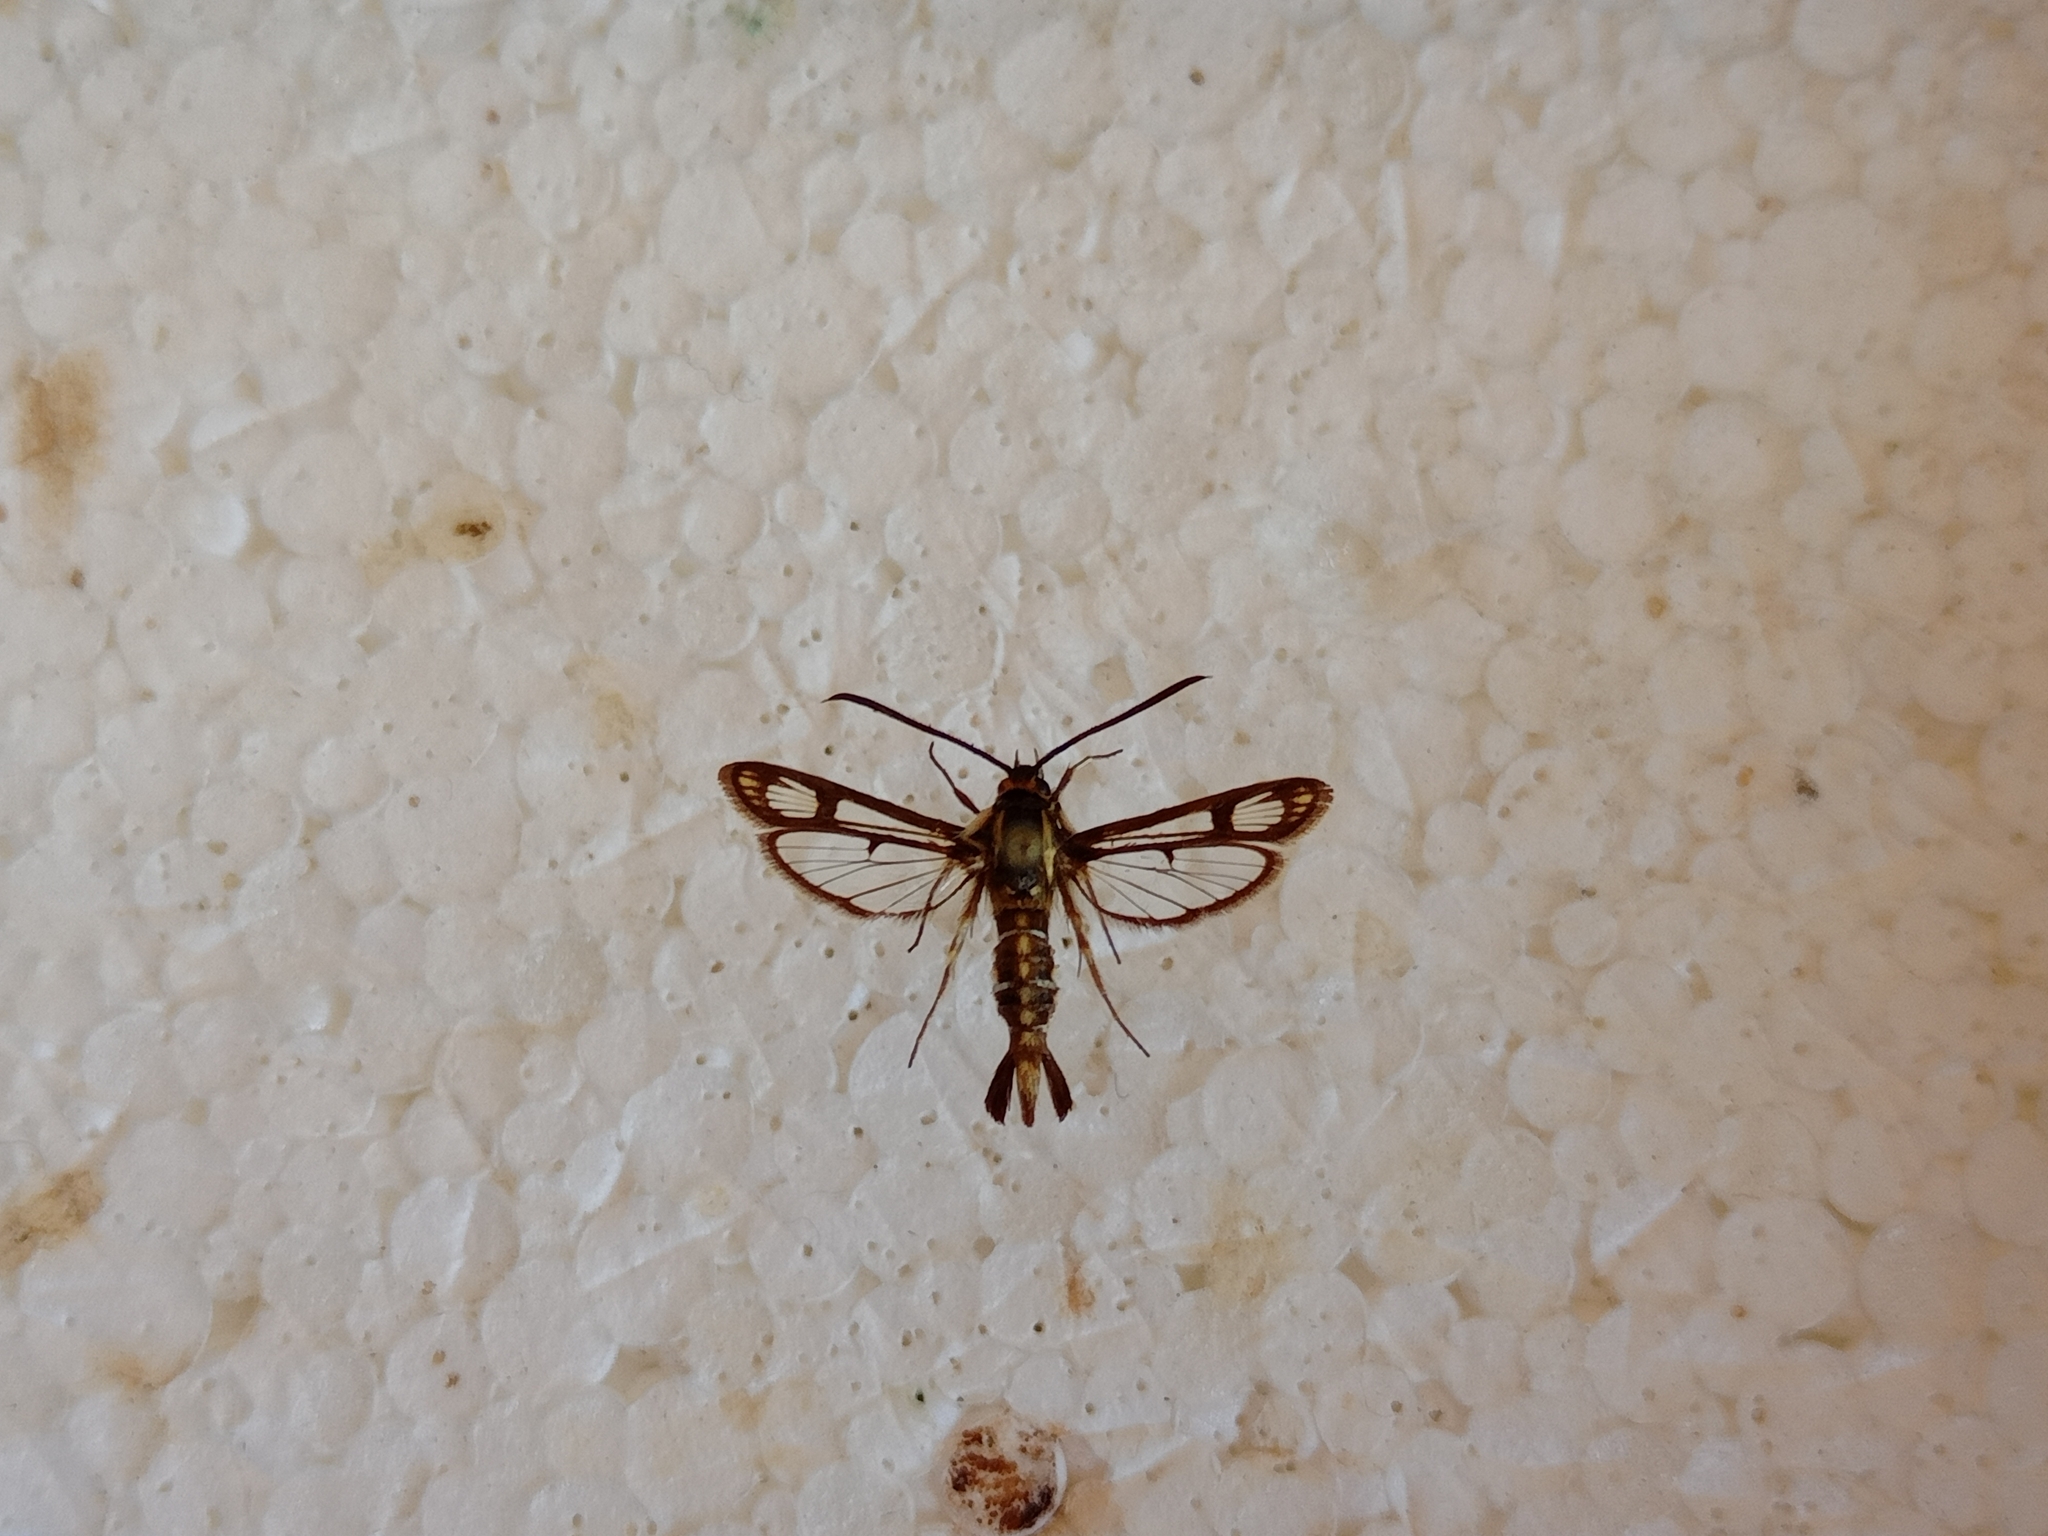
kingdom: Animalia
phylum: Arthropoda
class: Insecta
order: Lepidoptera
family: Sesiidae
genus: Pyropteron
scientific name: Pyropteron triannuliformis
